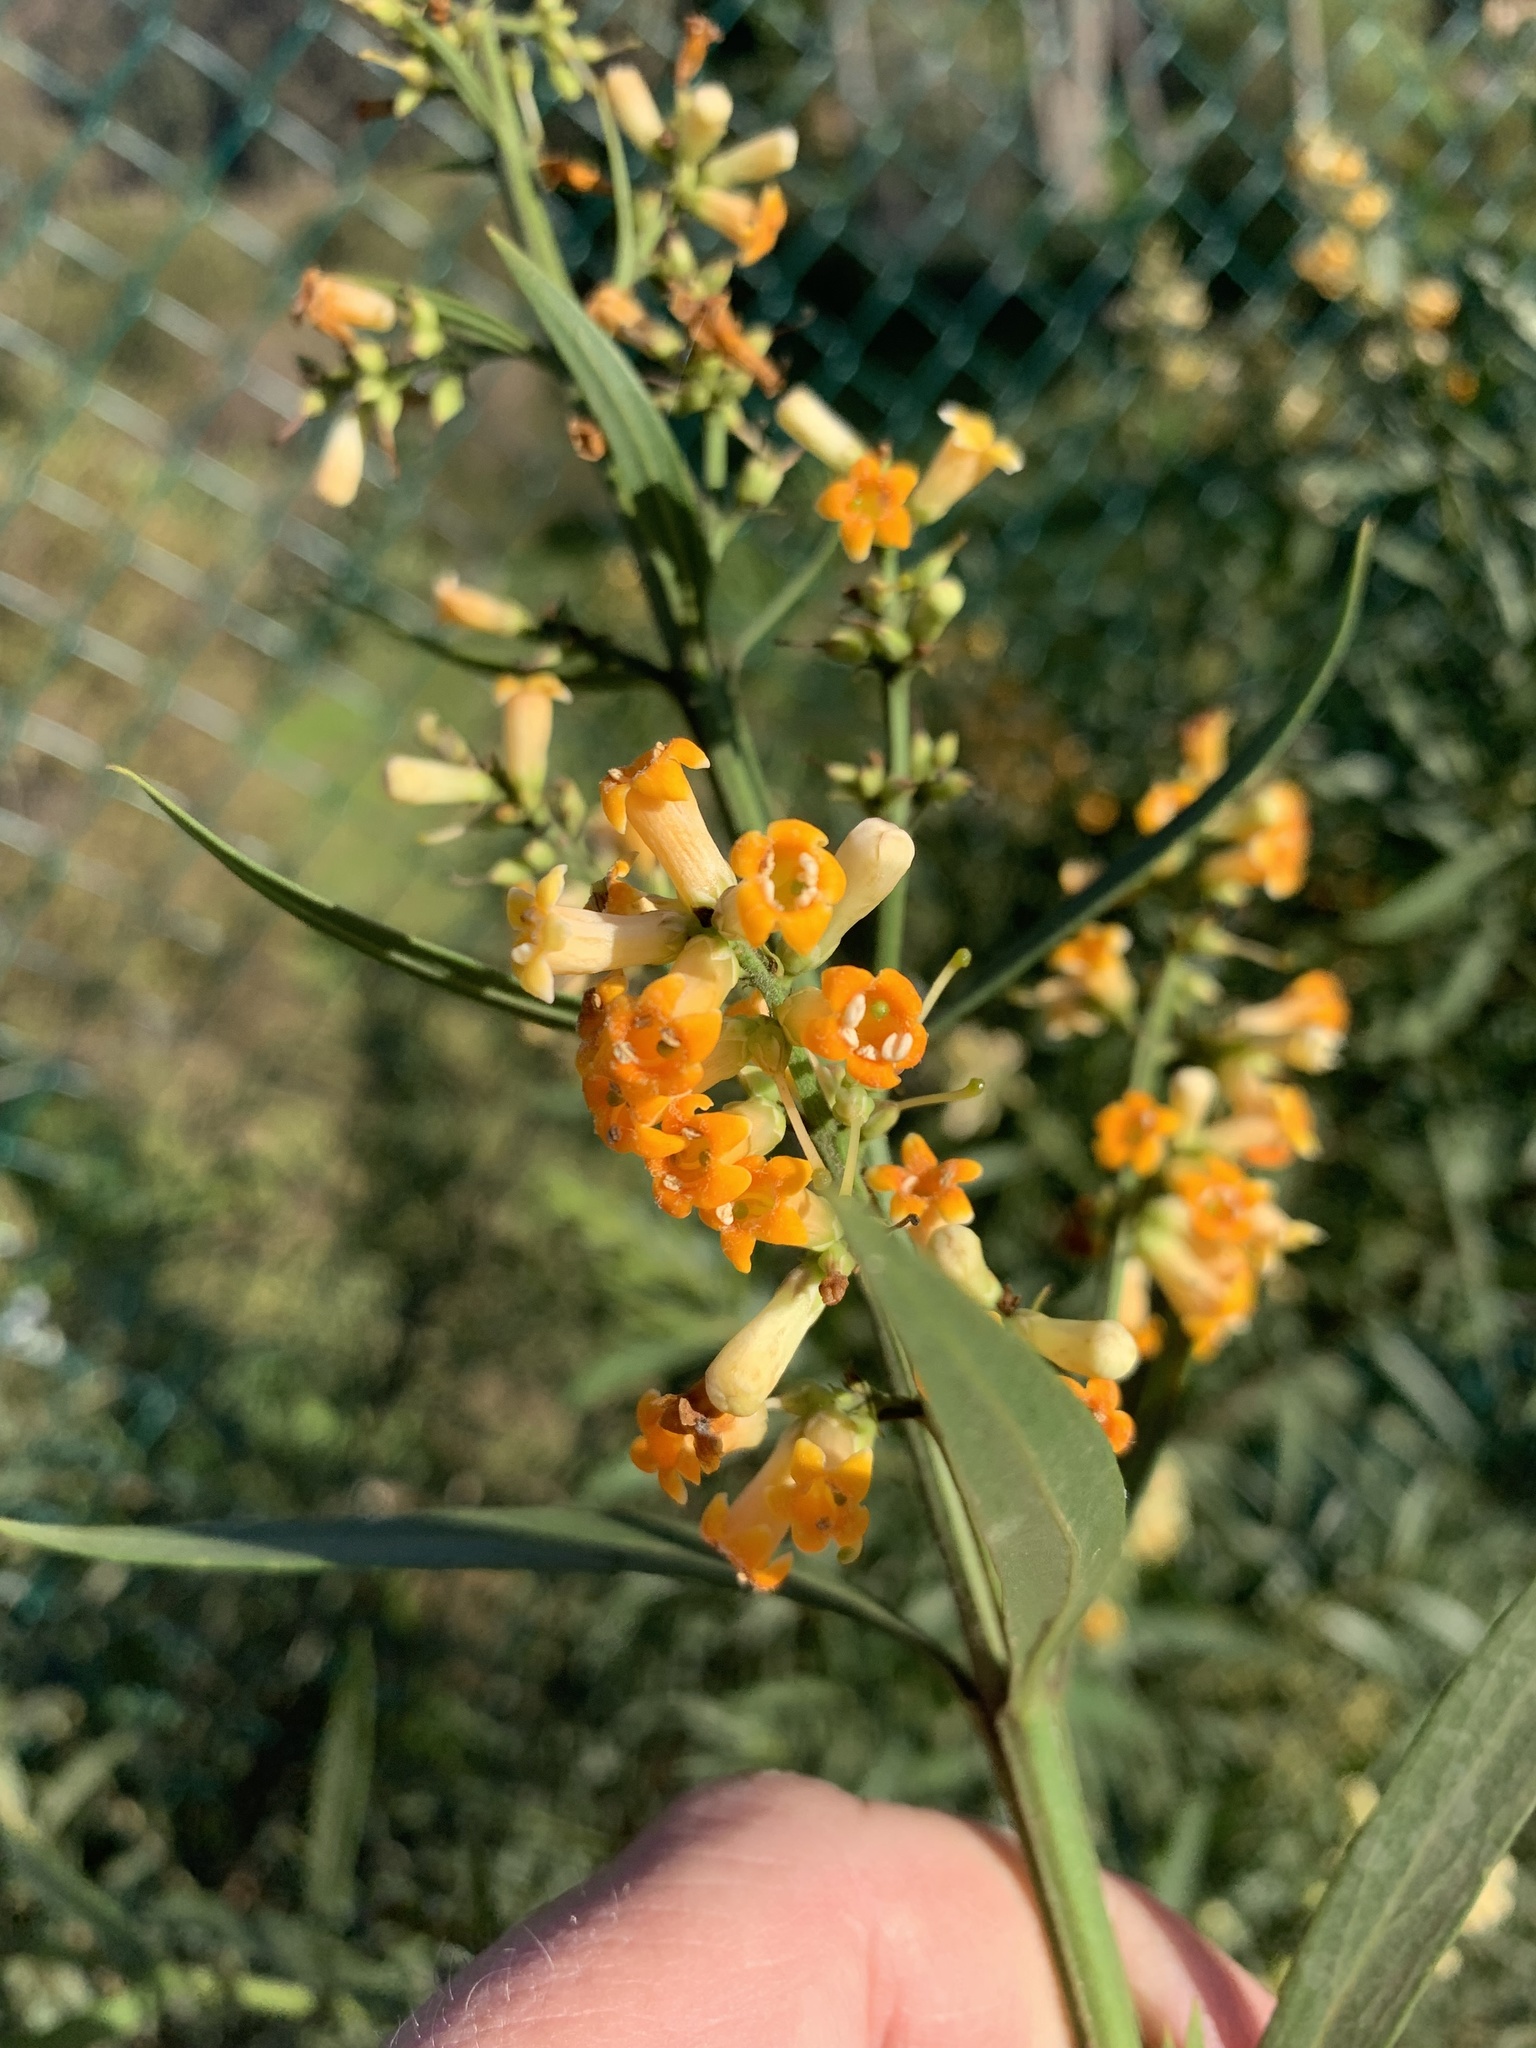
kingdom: Plantae
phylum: Tracheophyta
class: Magnoliopsida
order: Lamiales
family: Scrophulariaceae
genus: Freylinia
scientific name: Freylinia lanceolata
